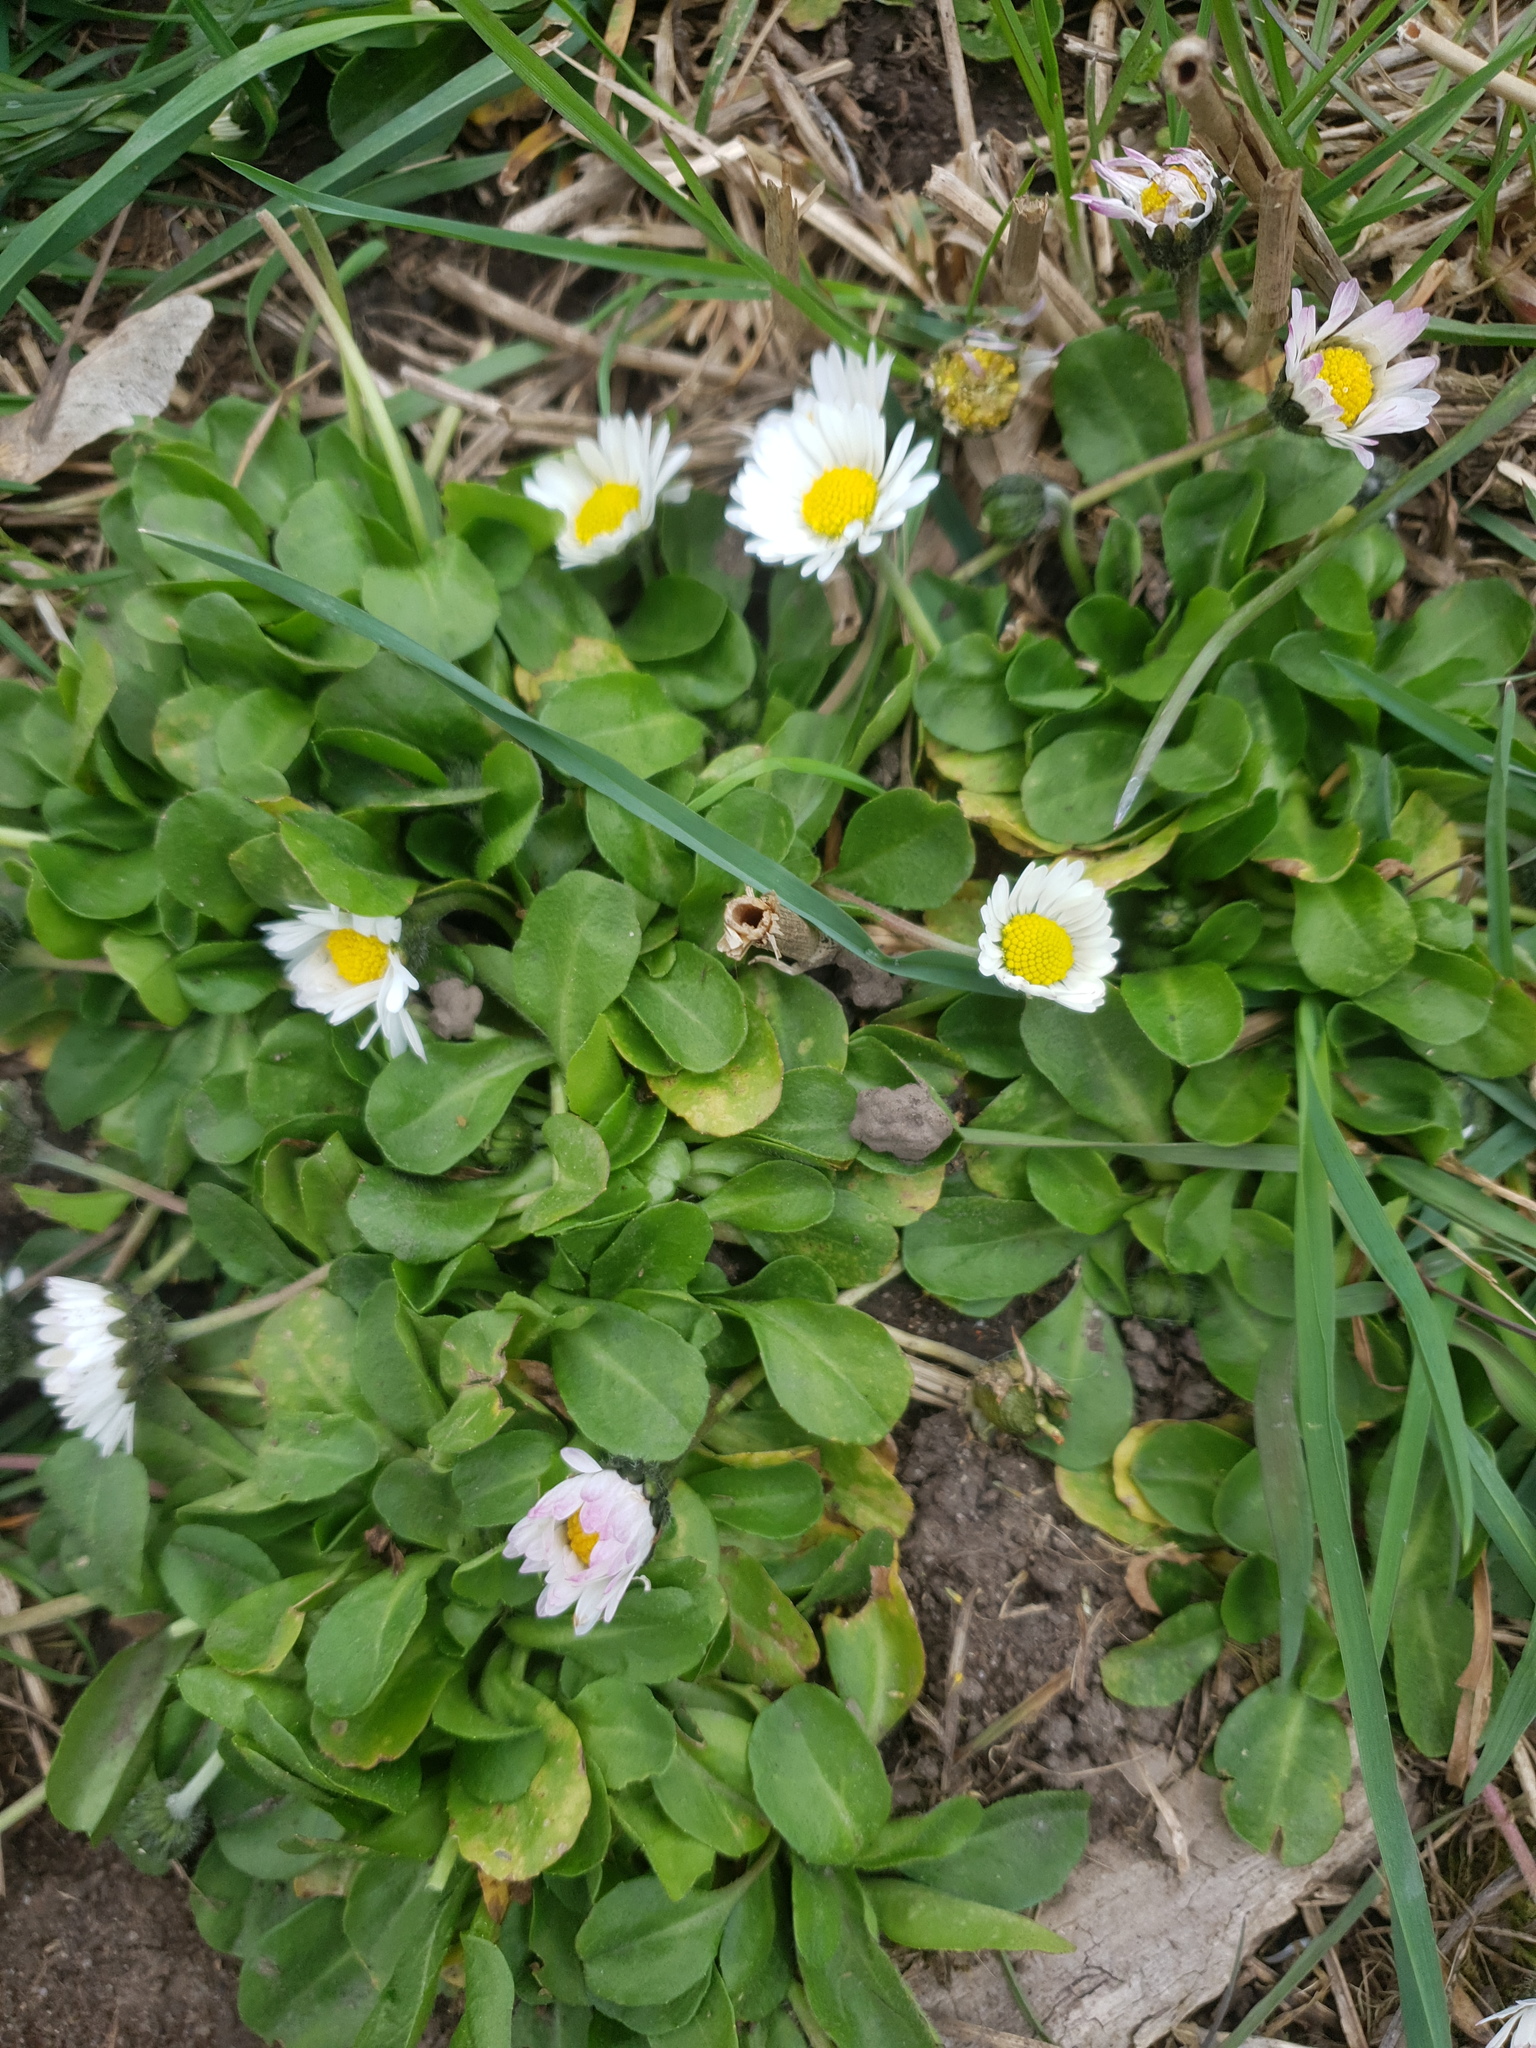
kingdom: Plantae
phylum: Tracheophyta
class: Magnoliopsida
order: Asterales
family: Asteraceae
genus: Bellis
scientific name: Bellis perennis
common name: Lawndaisy
